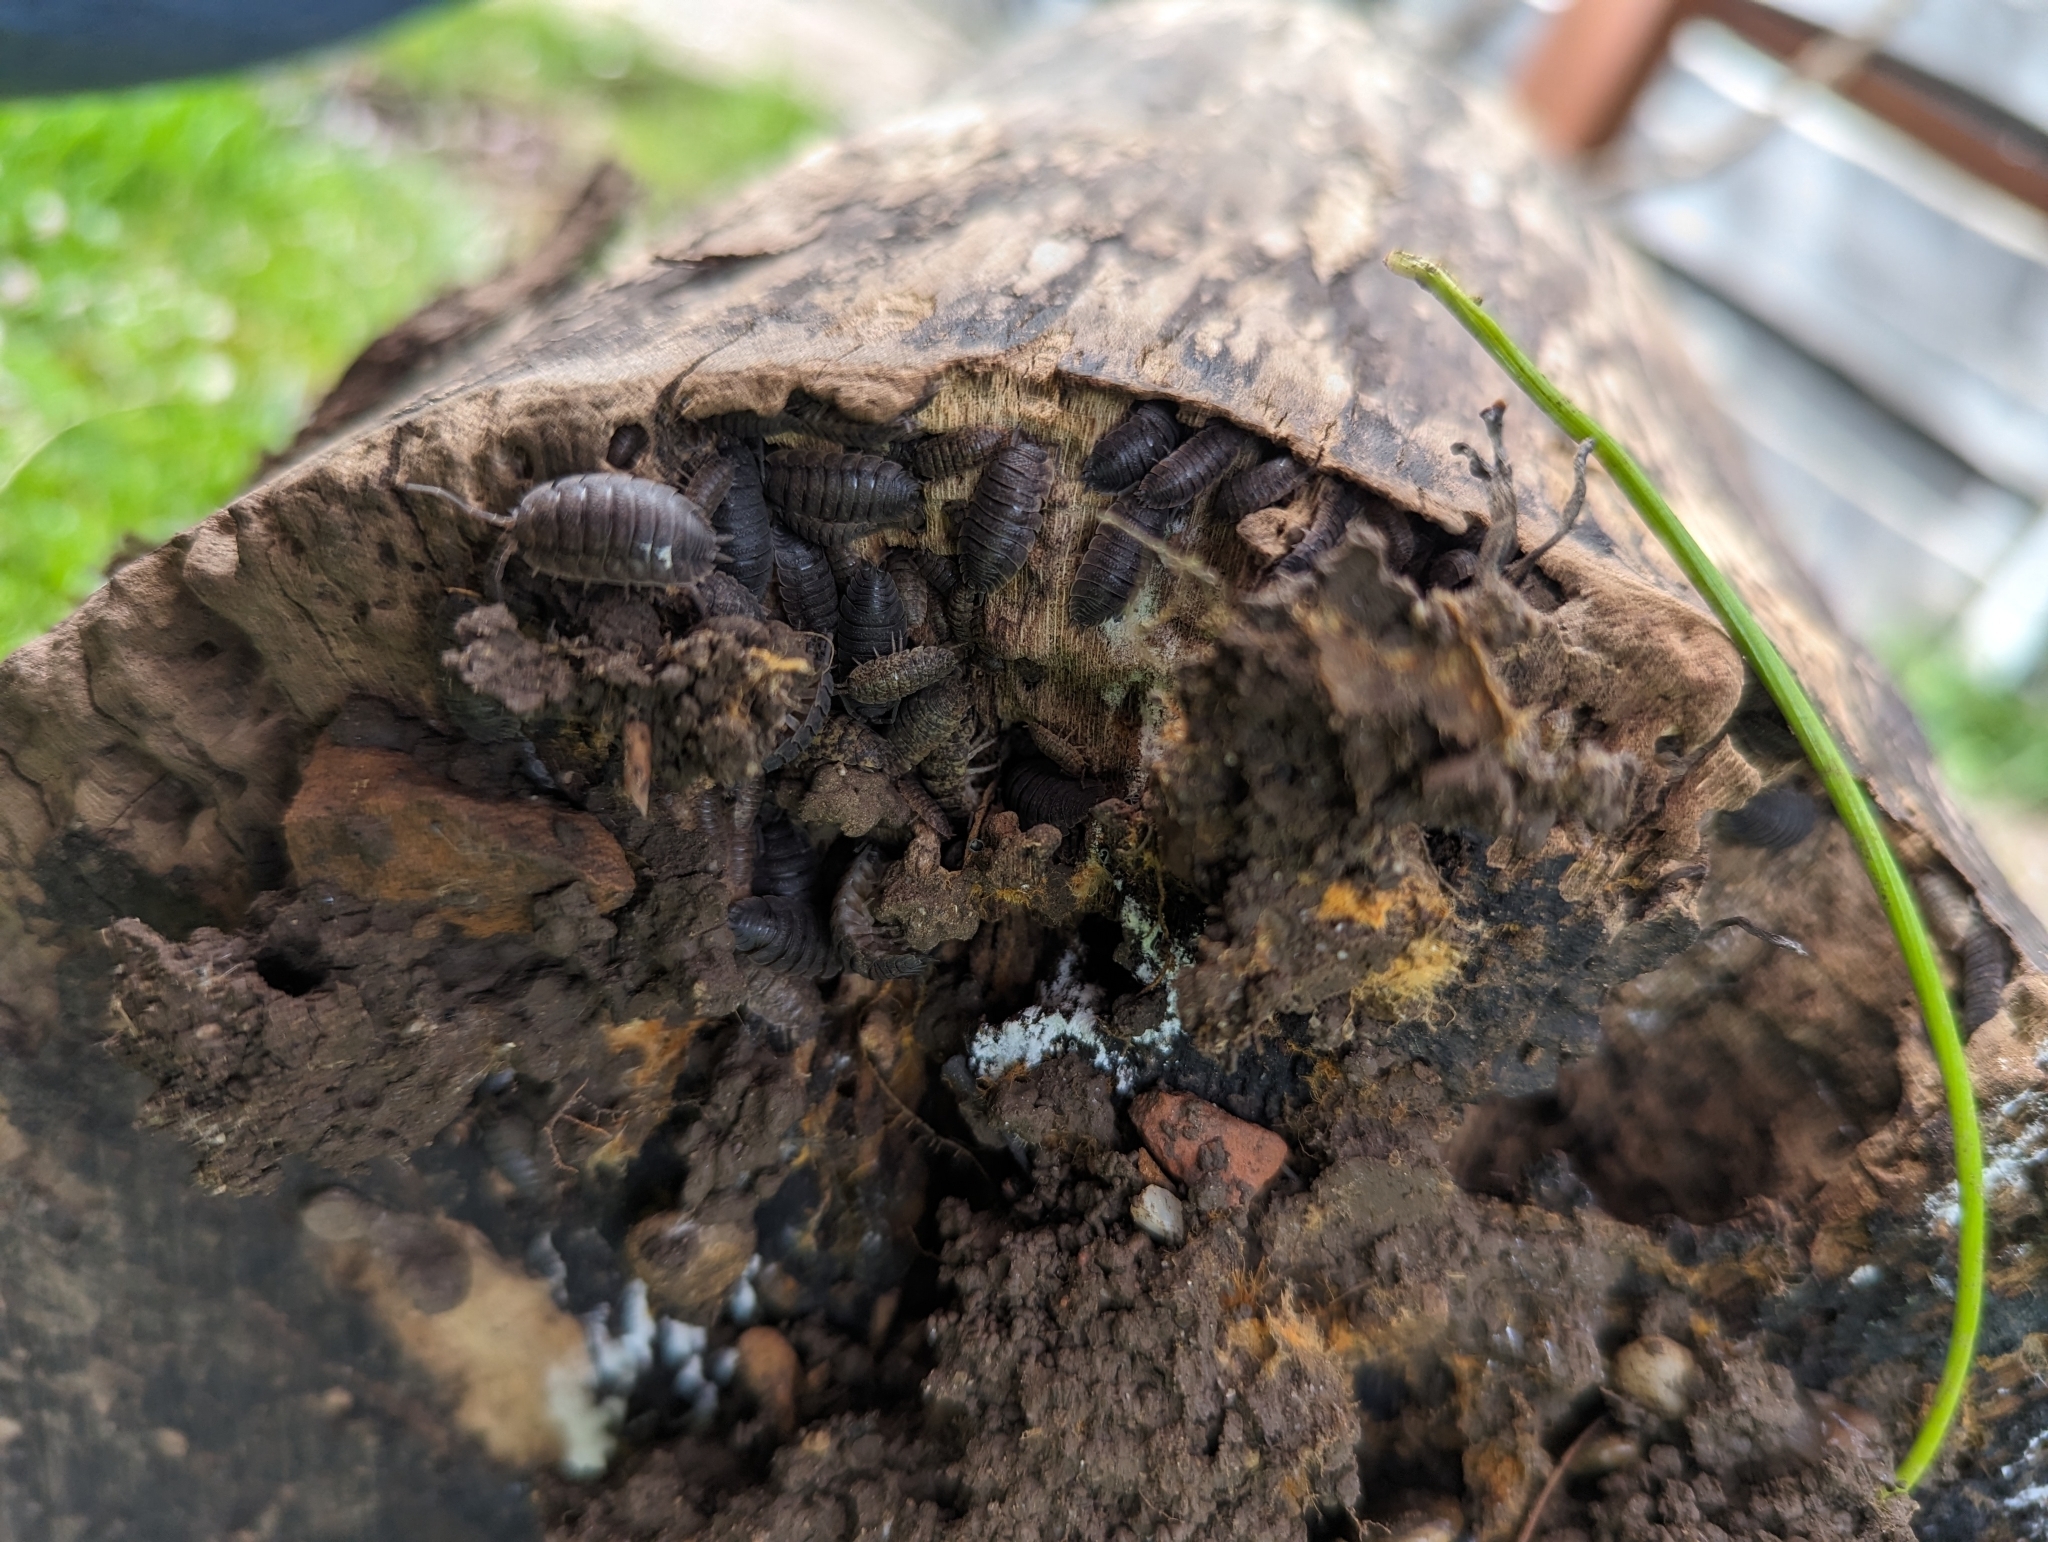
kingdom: Animalia
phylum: Arthropoda
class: Malacostraca
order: Isopoda
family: Porcellionidae
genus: Porcellio
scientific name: Porcellio scaber
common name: Common rough woodlouse
